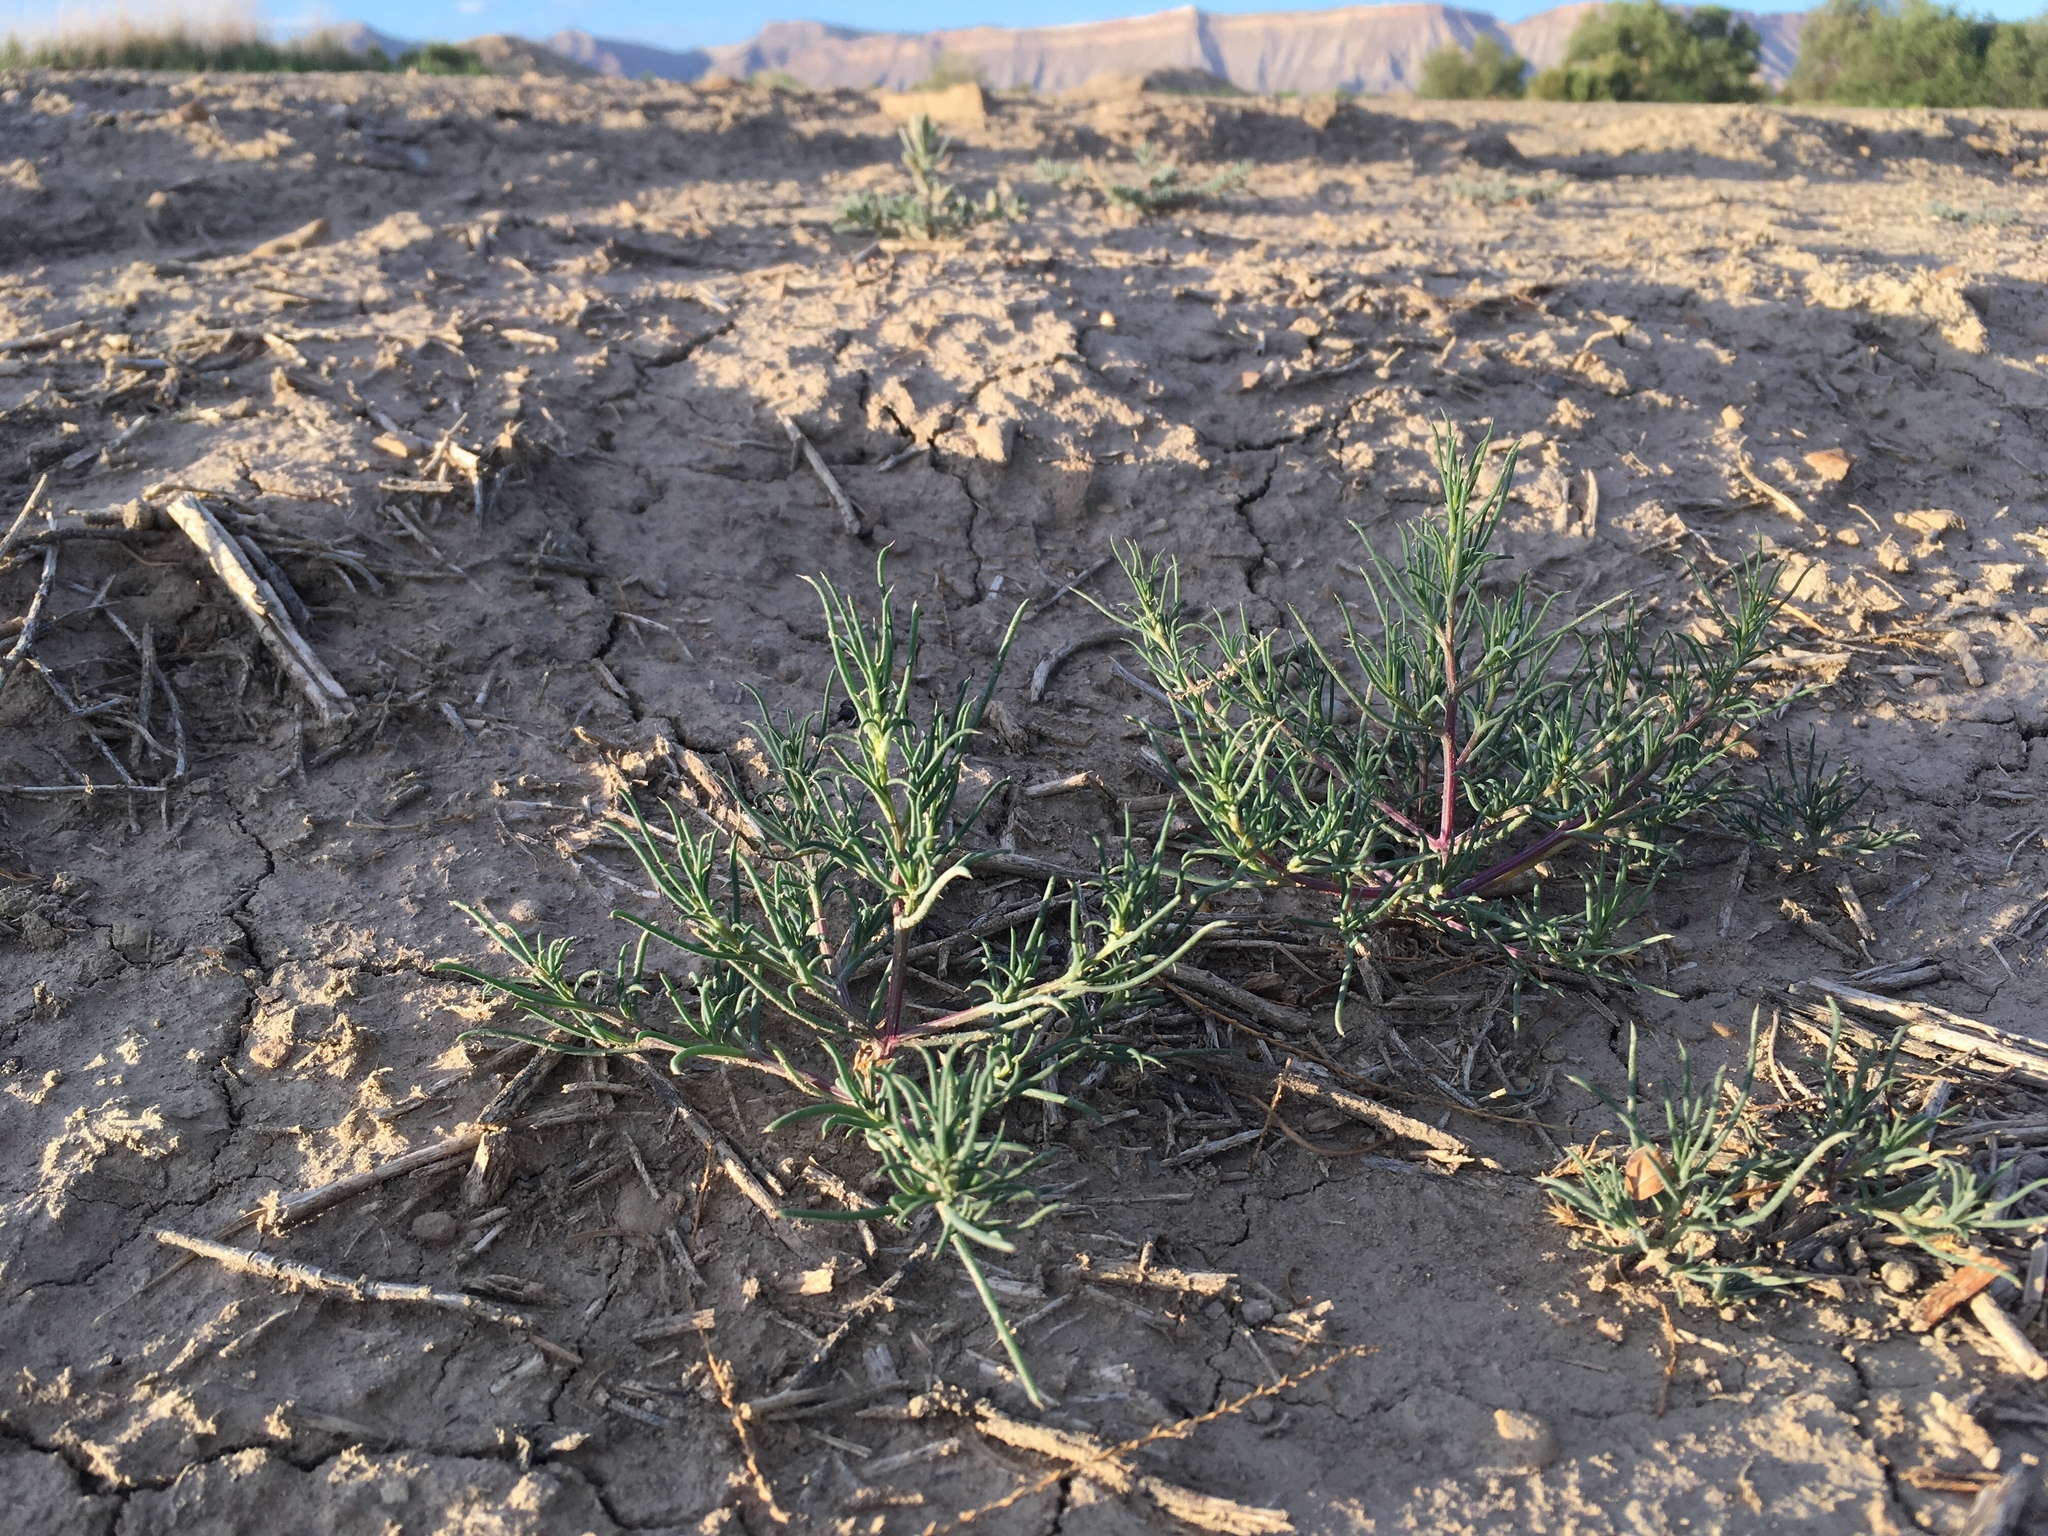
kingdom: Plantae
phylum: Tracheophyta
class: Magnoliopsida
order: Caryophyllales
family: Amaranthaceae
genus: Salsola
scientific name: Salsola tragus
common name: Prickly russian thistle
